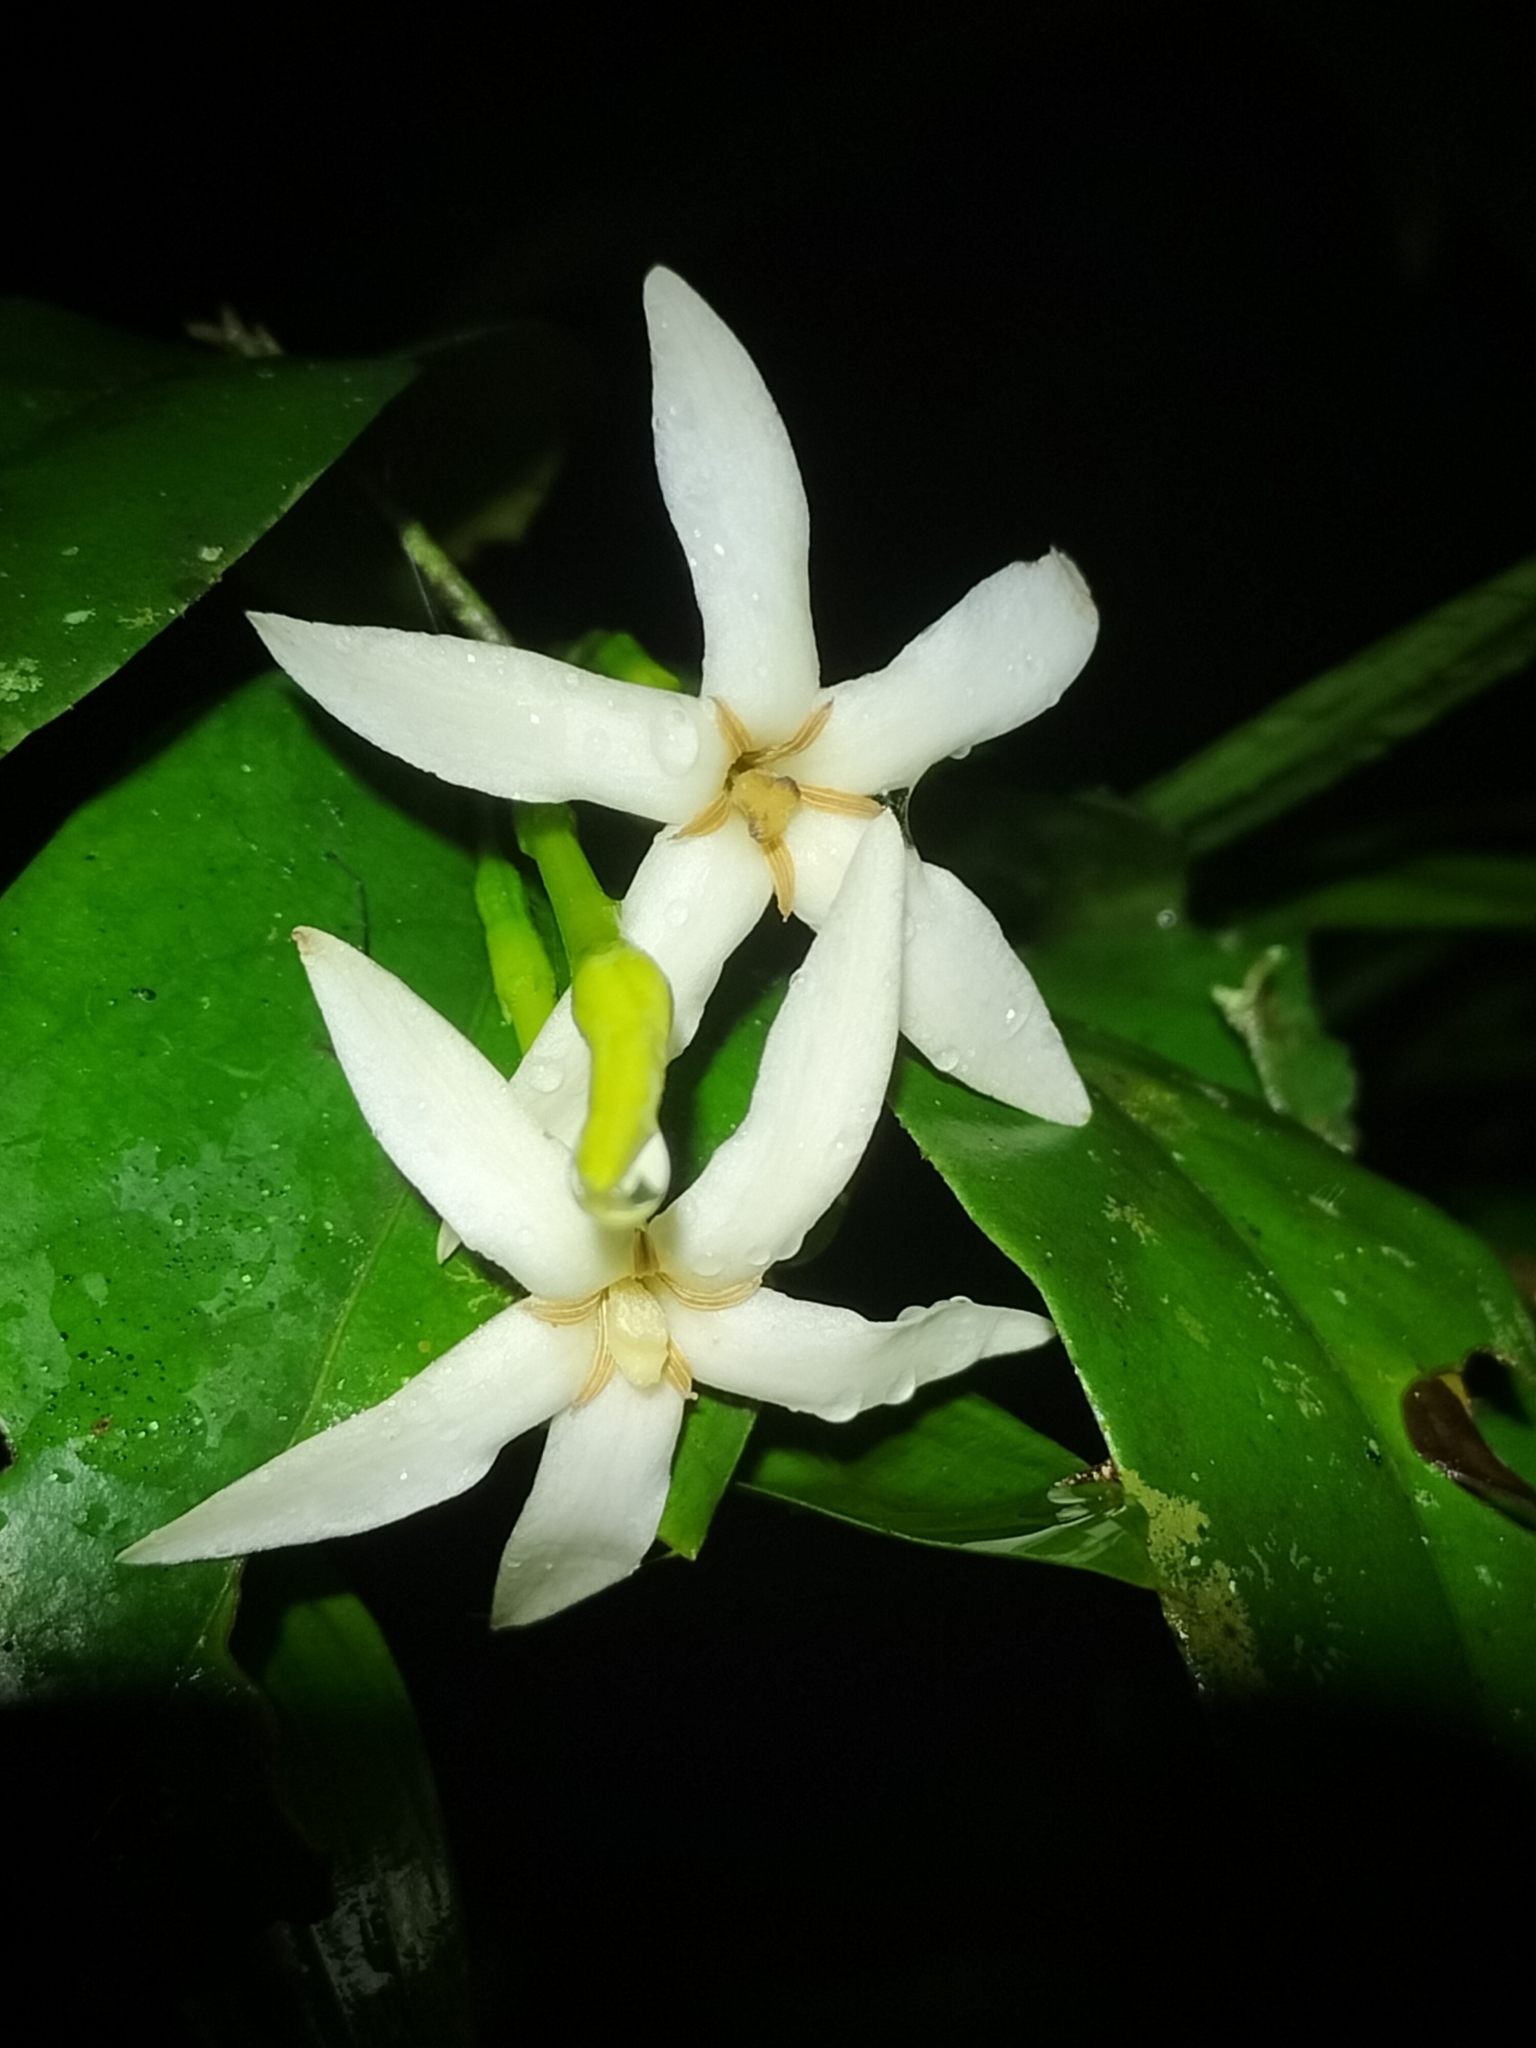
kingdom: Plantae
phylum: Tracheophyta
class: Magnoliopsida
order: Gentianales
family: Rubiaceae
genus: Randia
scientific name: Randia tuberculosa
